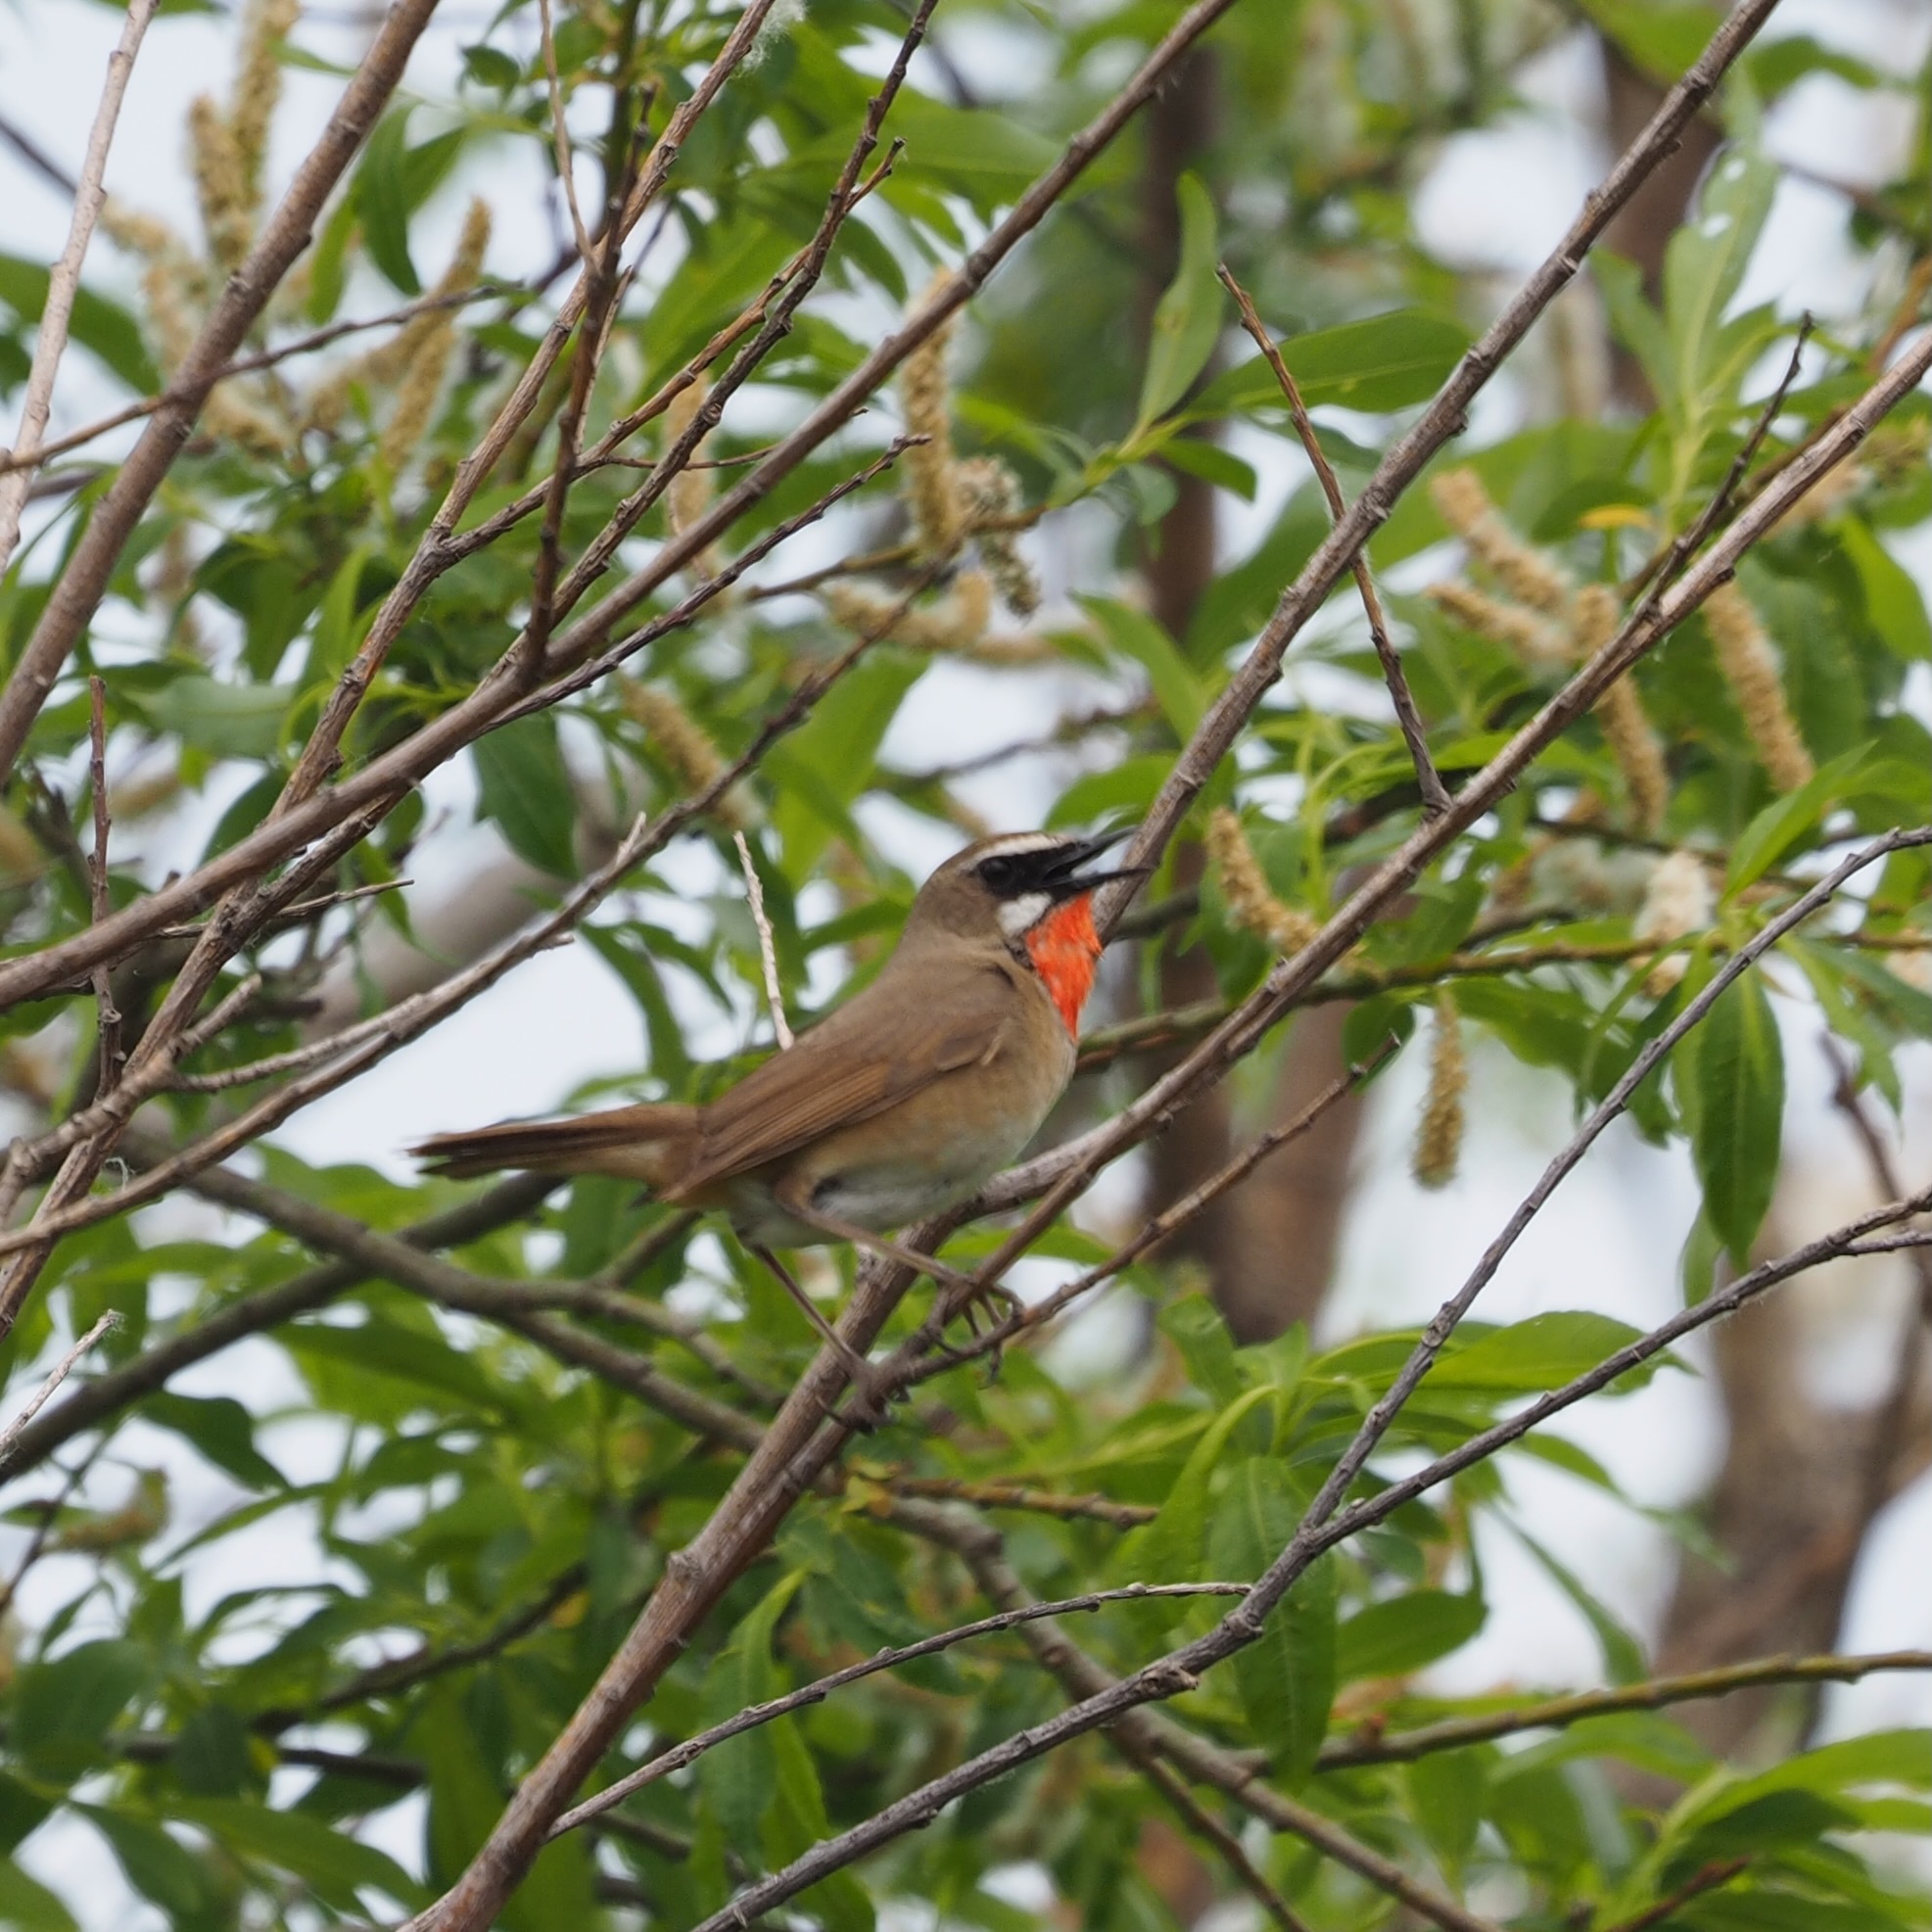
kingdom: Animalia
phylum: Chordata
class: Aves
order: Passeriformes
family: Muscicapidae
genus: Luscinia
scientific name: Luscinia calliope
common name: Siberian rubythroat
